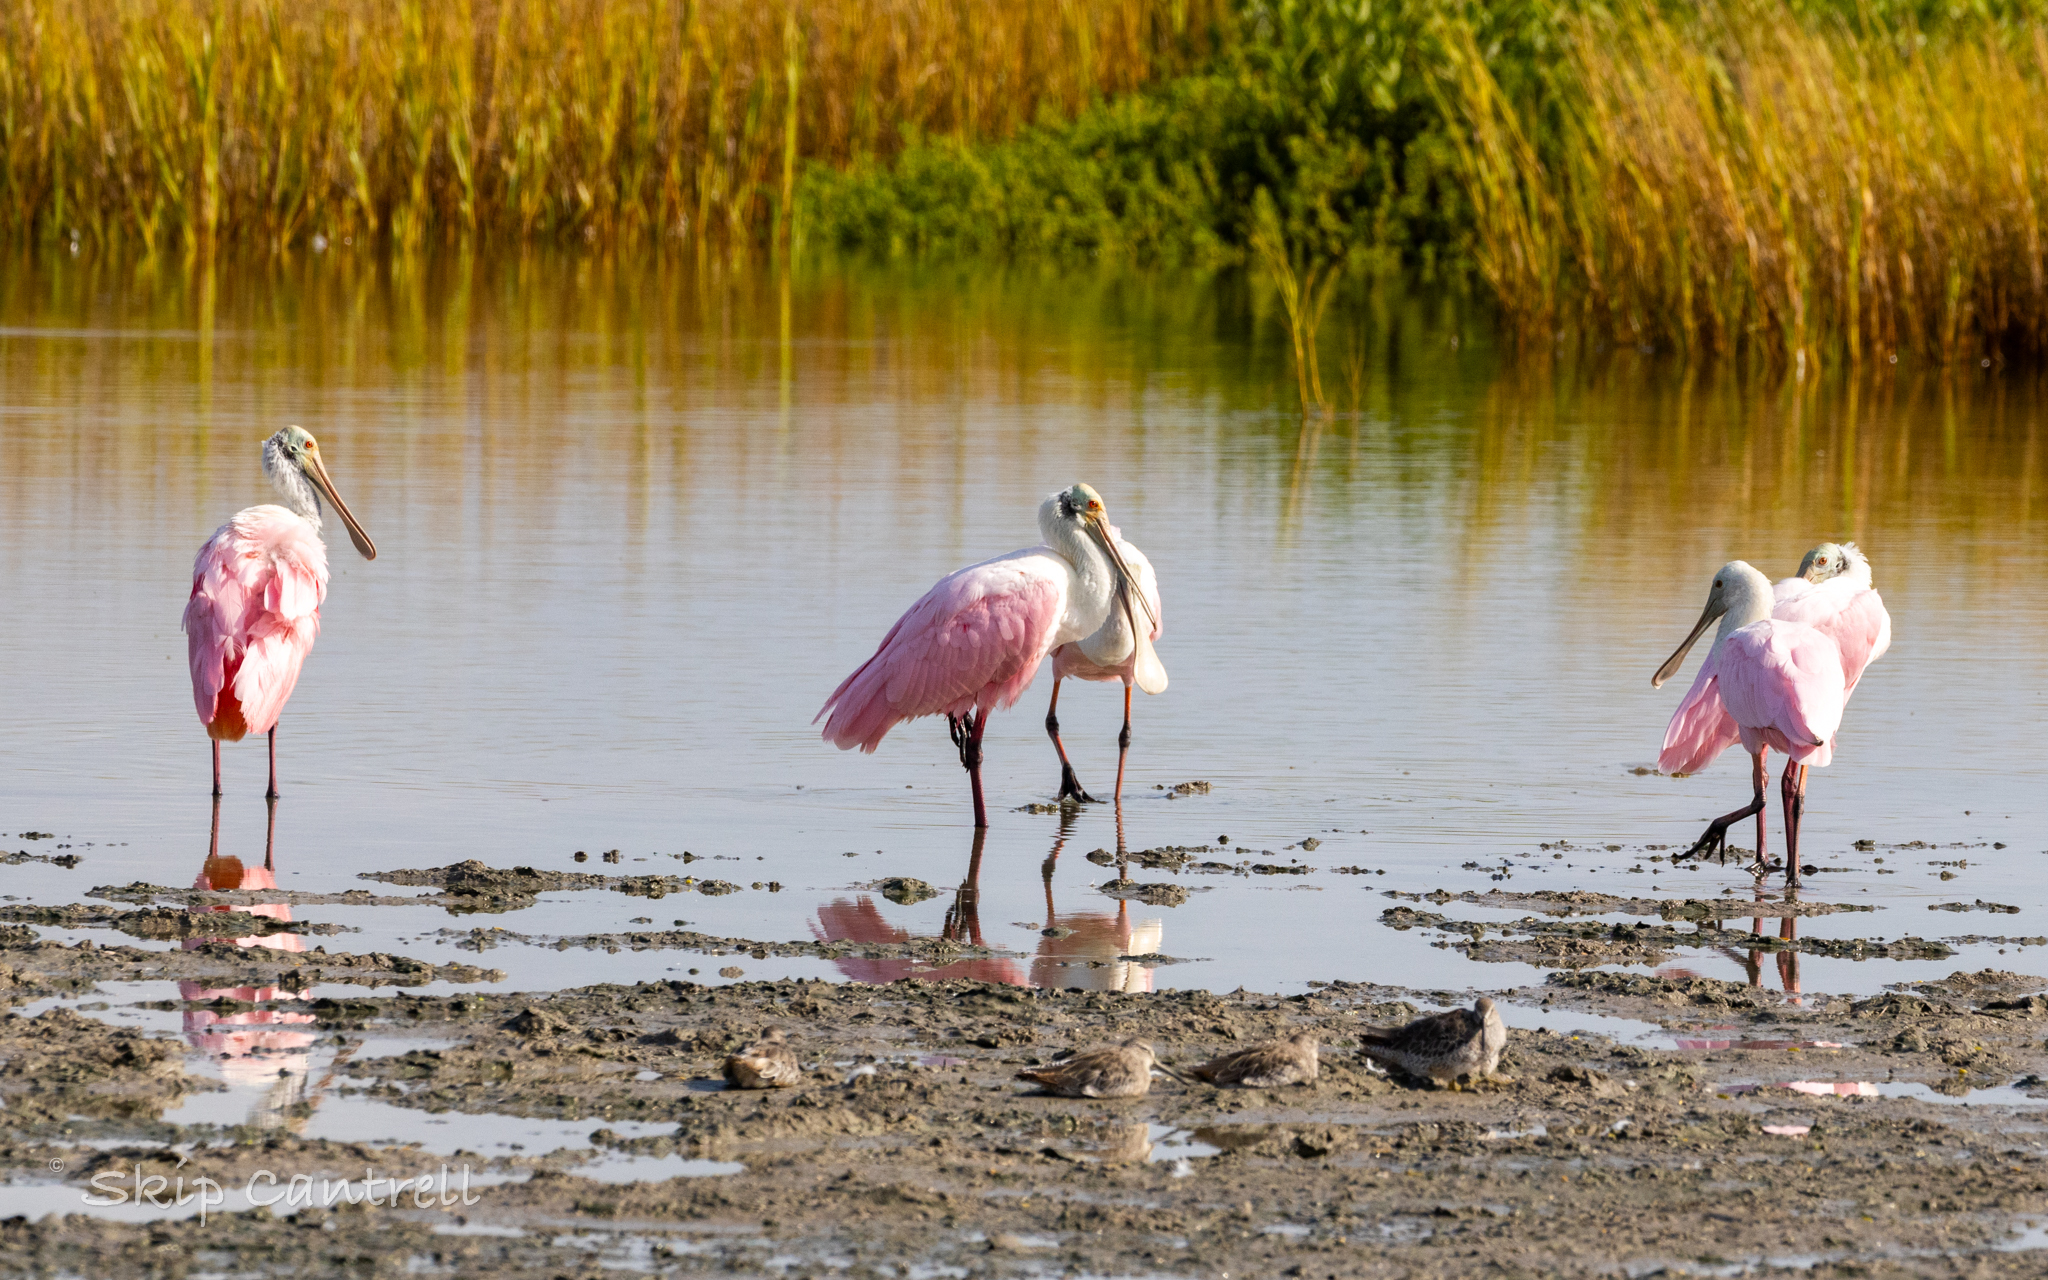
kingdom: Animalia
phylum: Chordata
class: Aves
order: Pelecaniformes
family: Threskiornithidae
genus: Platalea
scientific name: Platalea ajaja
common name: Roseate spoonbill
